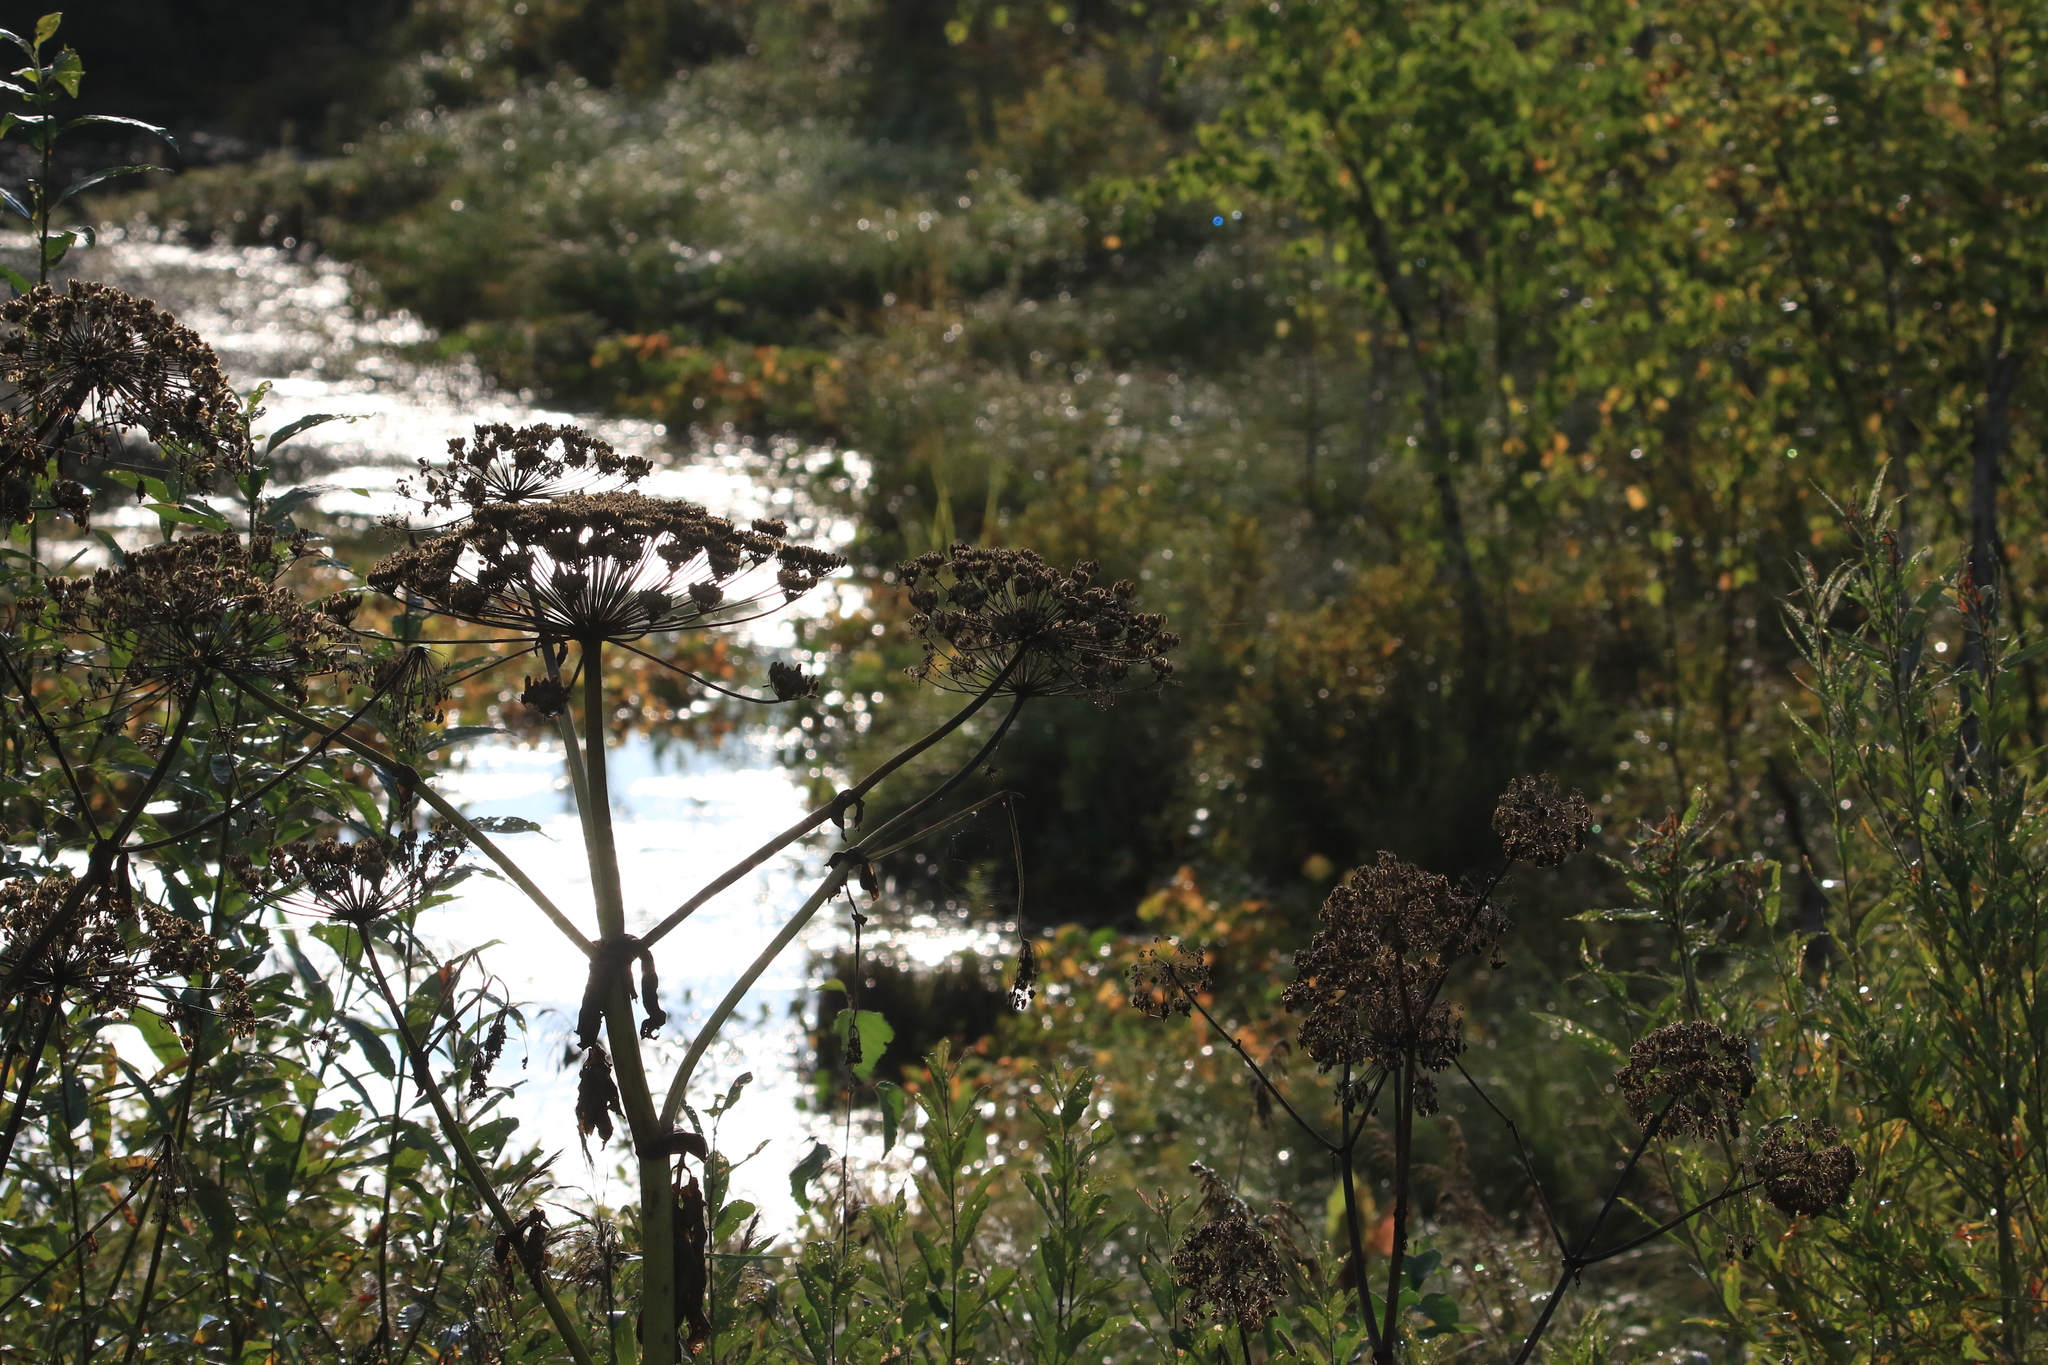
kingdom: Plantae
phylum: Tracheophyta
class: Magnoliopsida
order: Apiales
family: Apiaceae
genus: Angelica
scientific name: Angelica sylvestris
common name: Wild angelica
